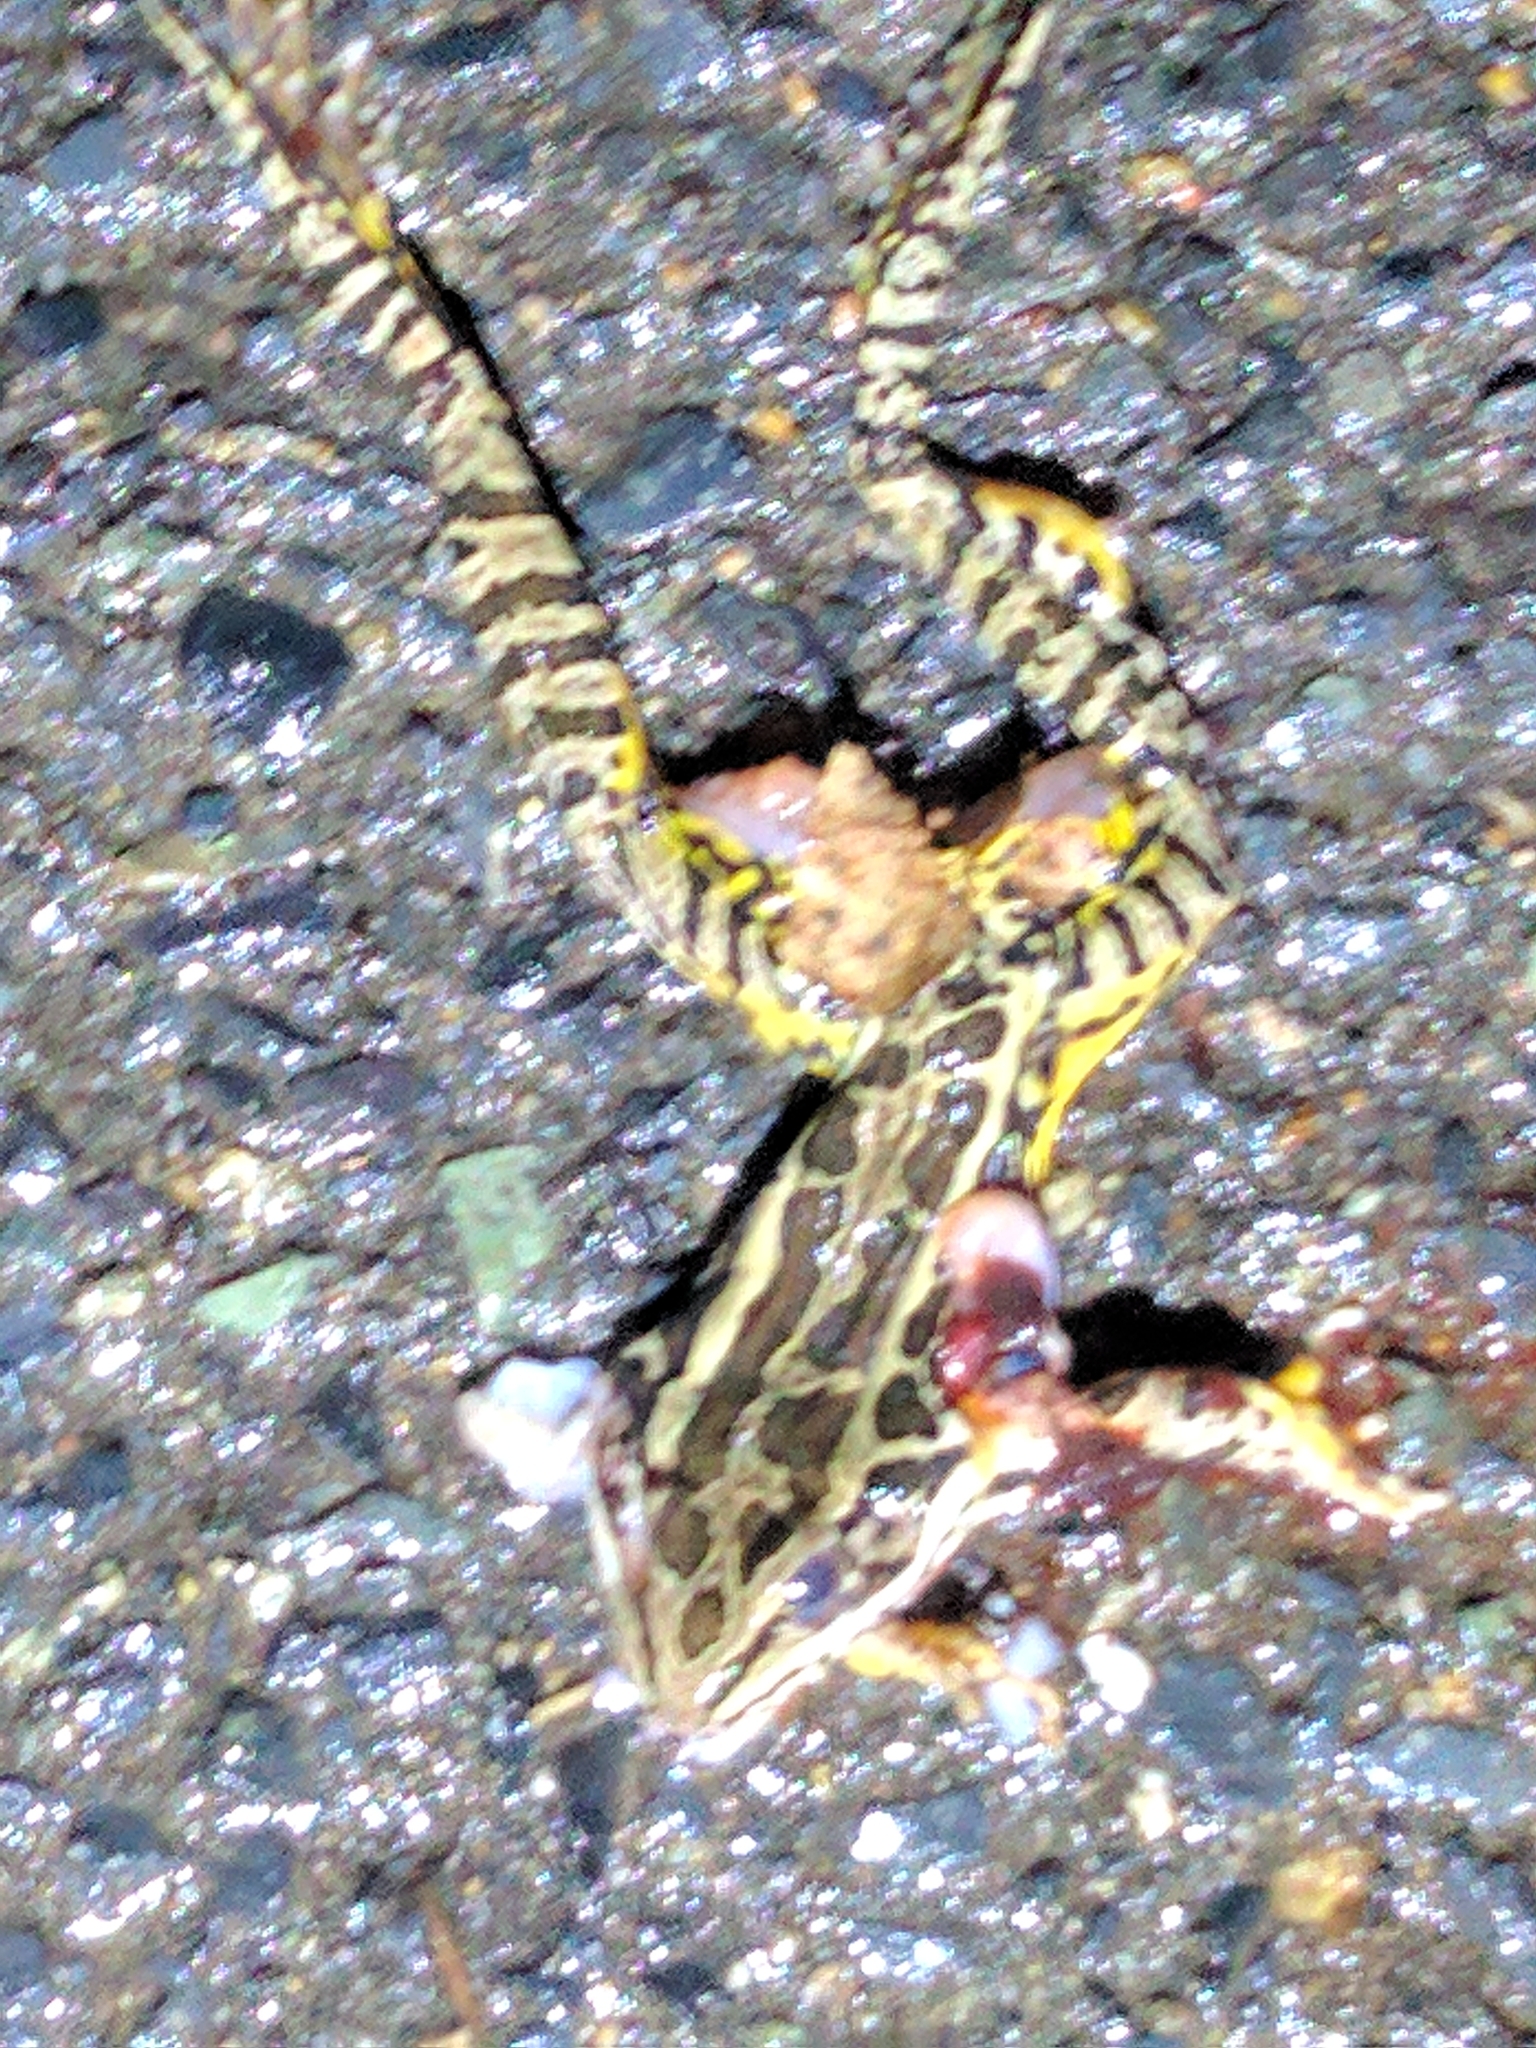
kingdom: Animalia
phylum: Chordata
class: Amphibia
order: Anura
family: Ranidae
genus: Lithobates
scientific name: Lithobates palustris
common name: Pickerel frog
